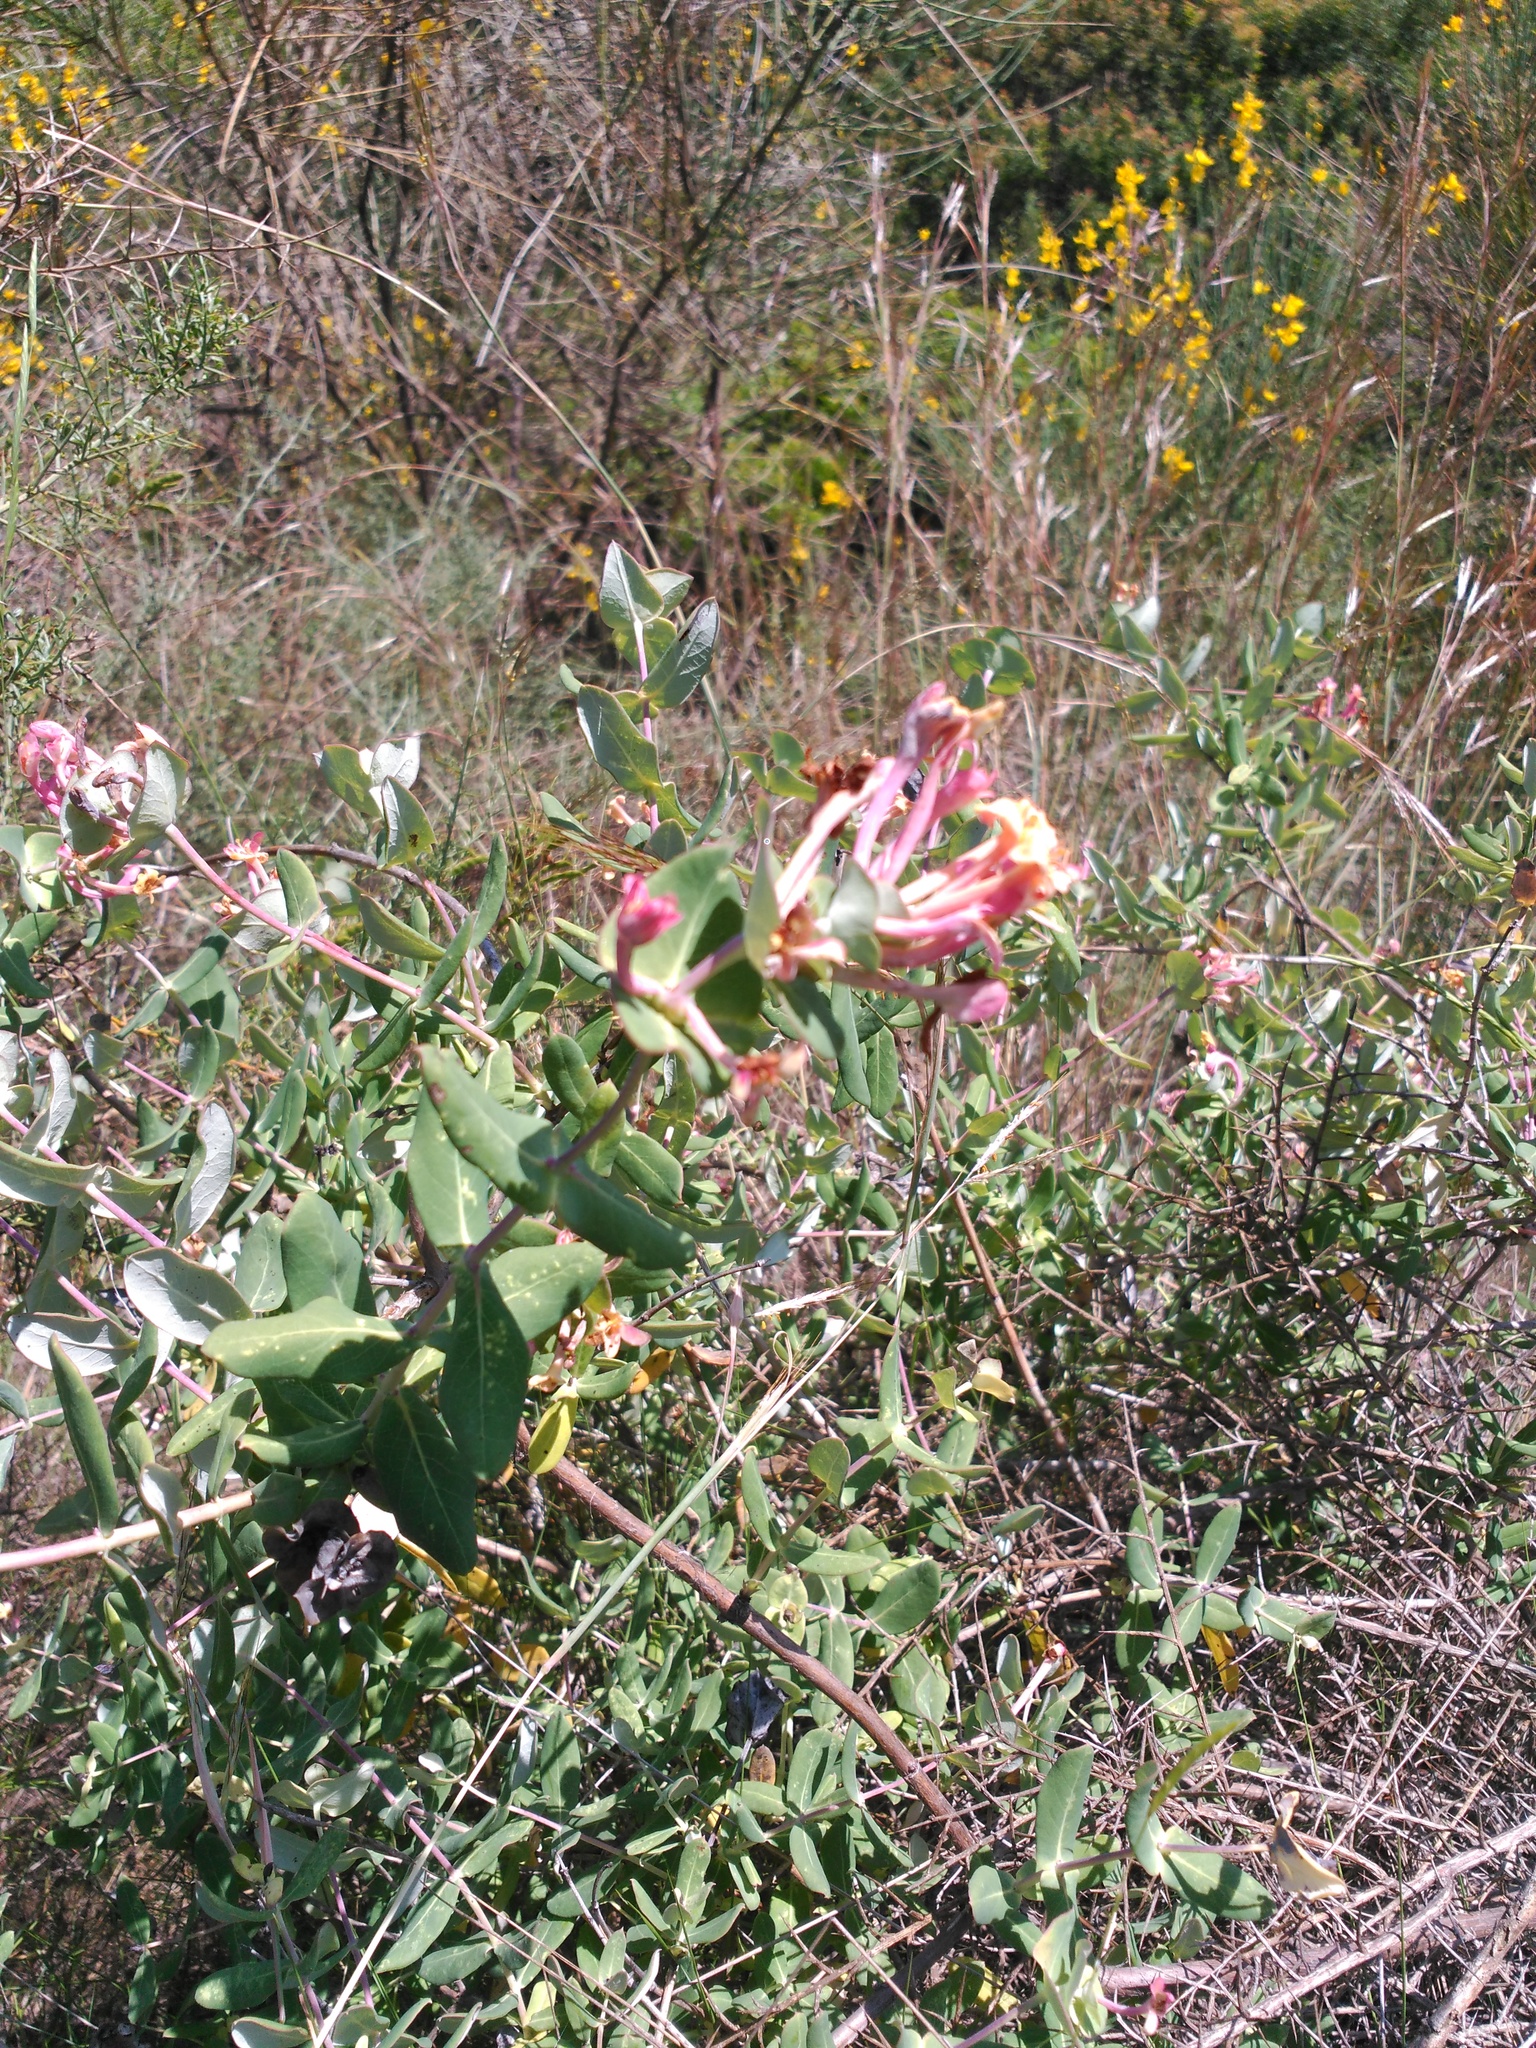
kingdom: Plantae
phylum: Tracheophyta
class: Magnoliopsida
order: Dipsacales
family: Caprifoliaceae
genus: Lonicera
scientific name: Lonicera implexa
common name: Minorca honeysuckle
